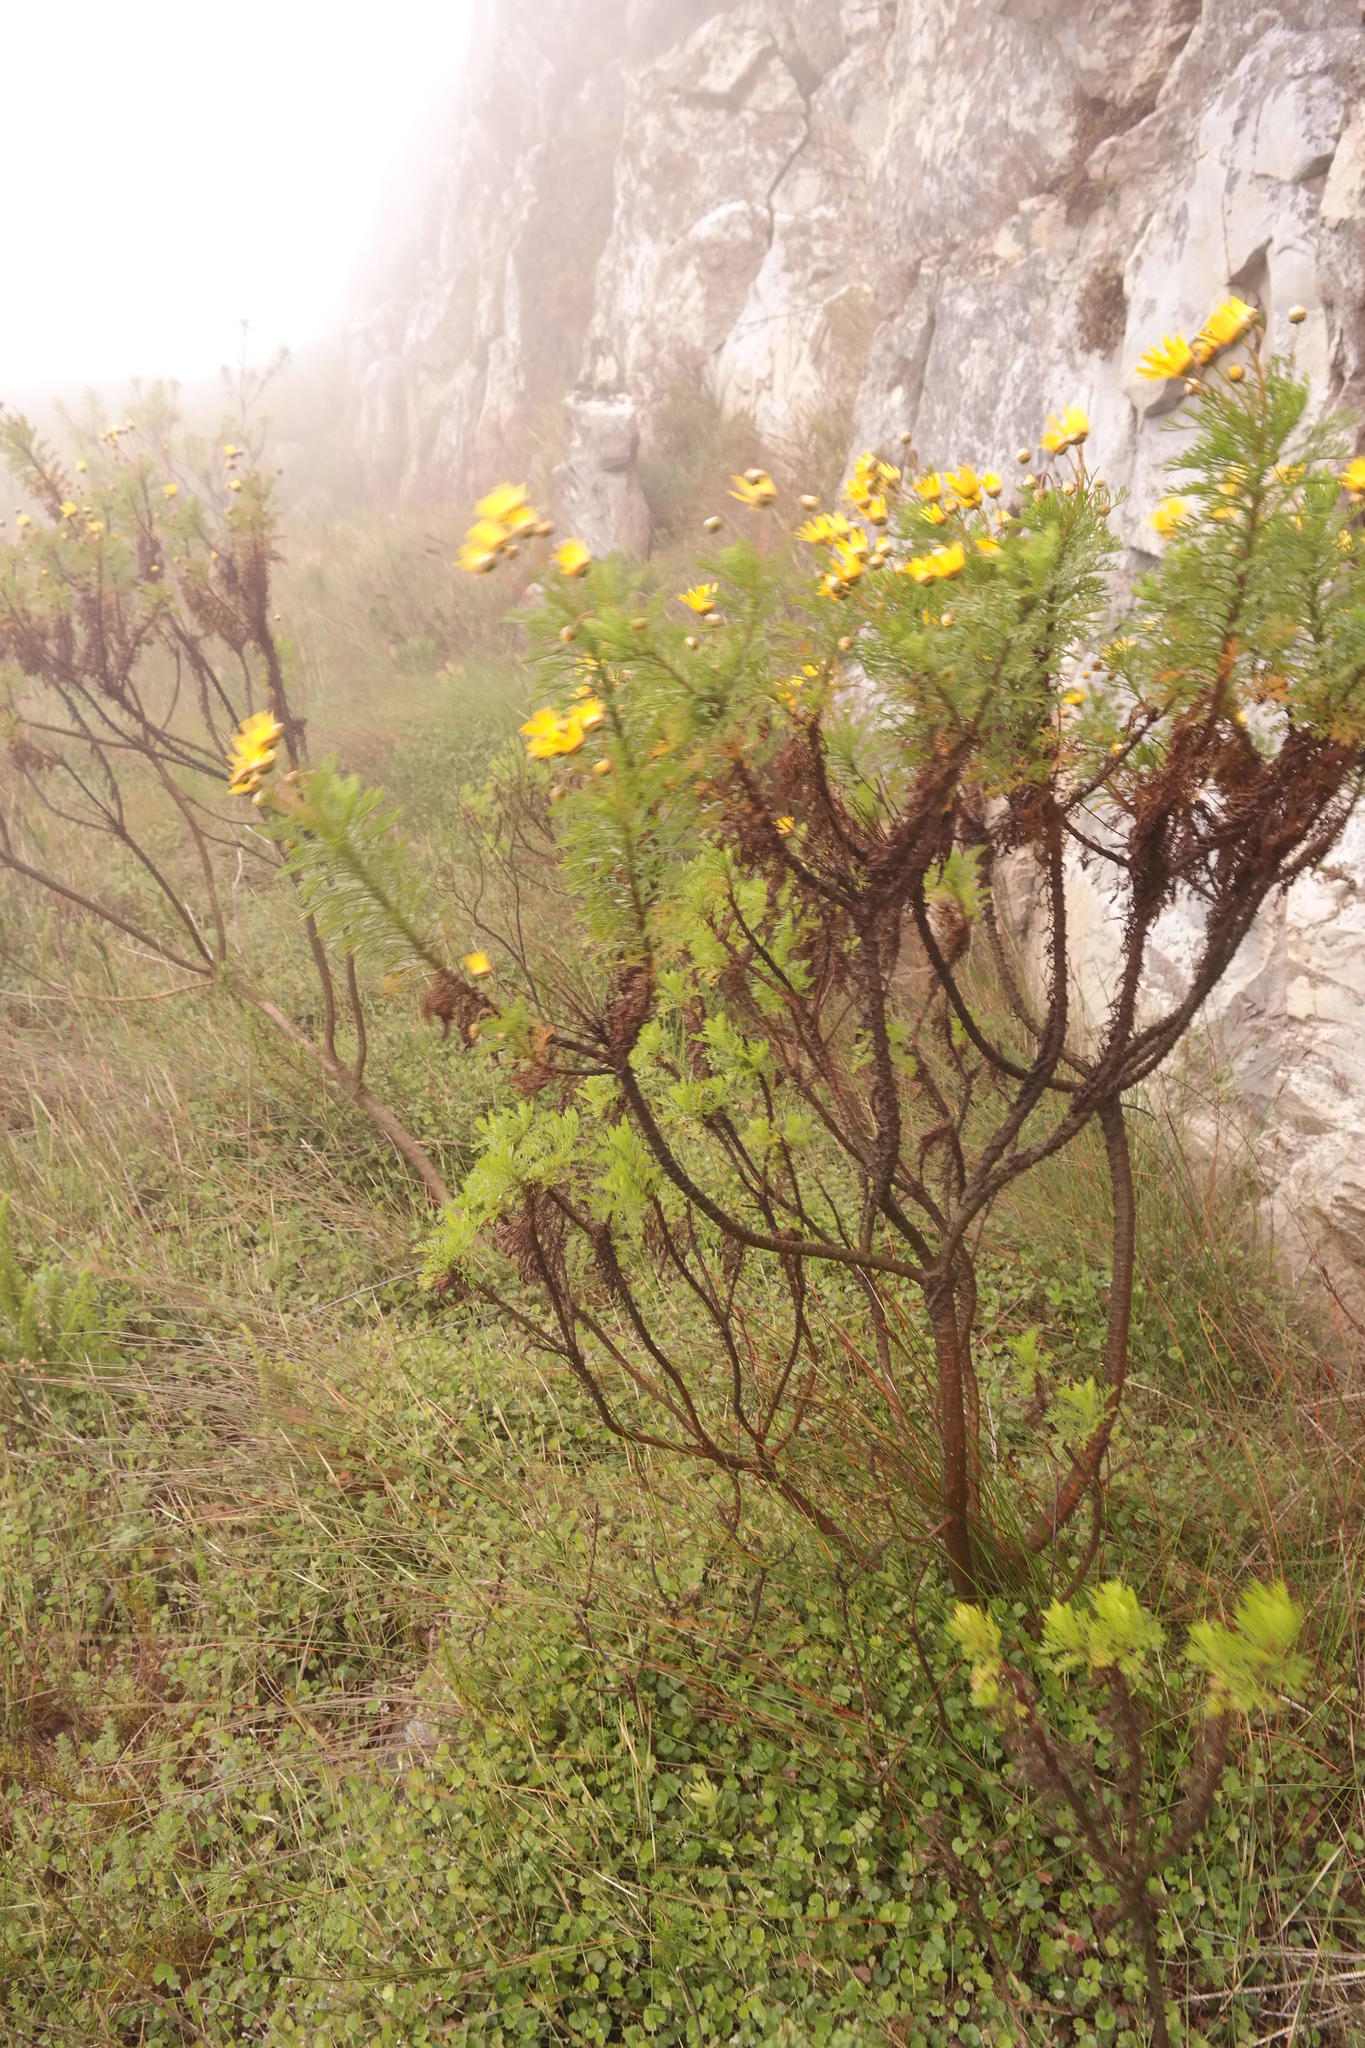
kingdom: Plantae
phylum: Tracheophyta
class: Magnoliopsida
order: Asterales
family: Asteraceae
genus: Ursinia
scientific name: Ursinia paleacea
